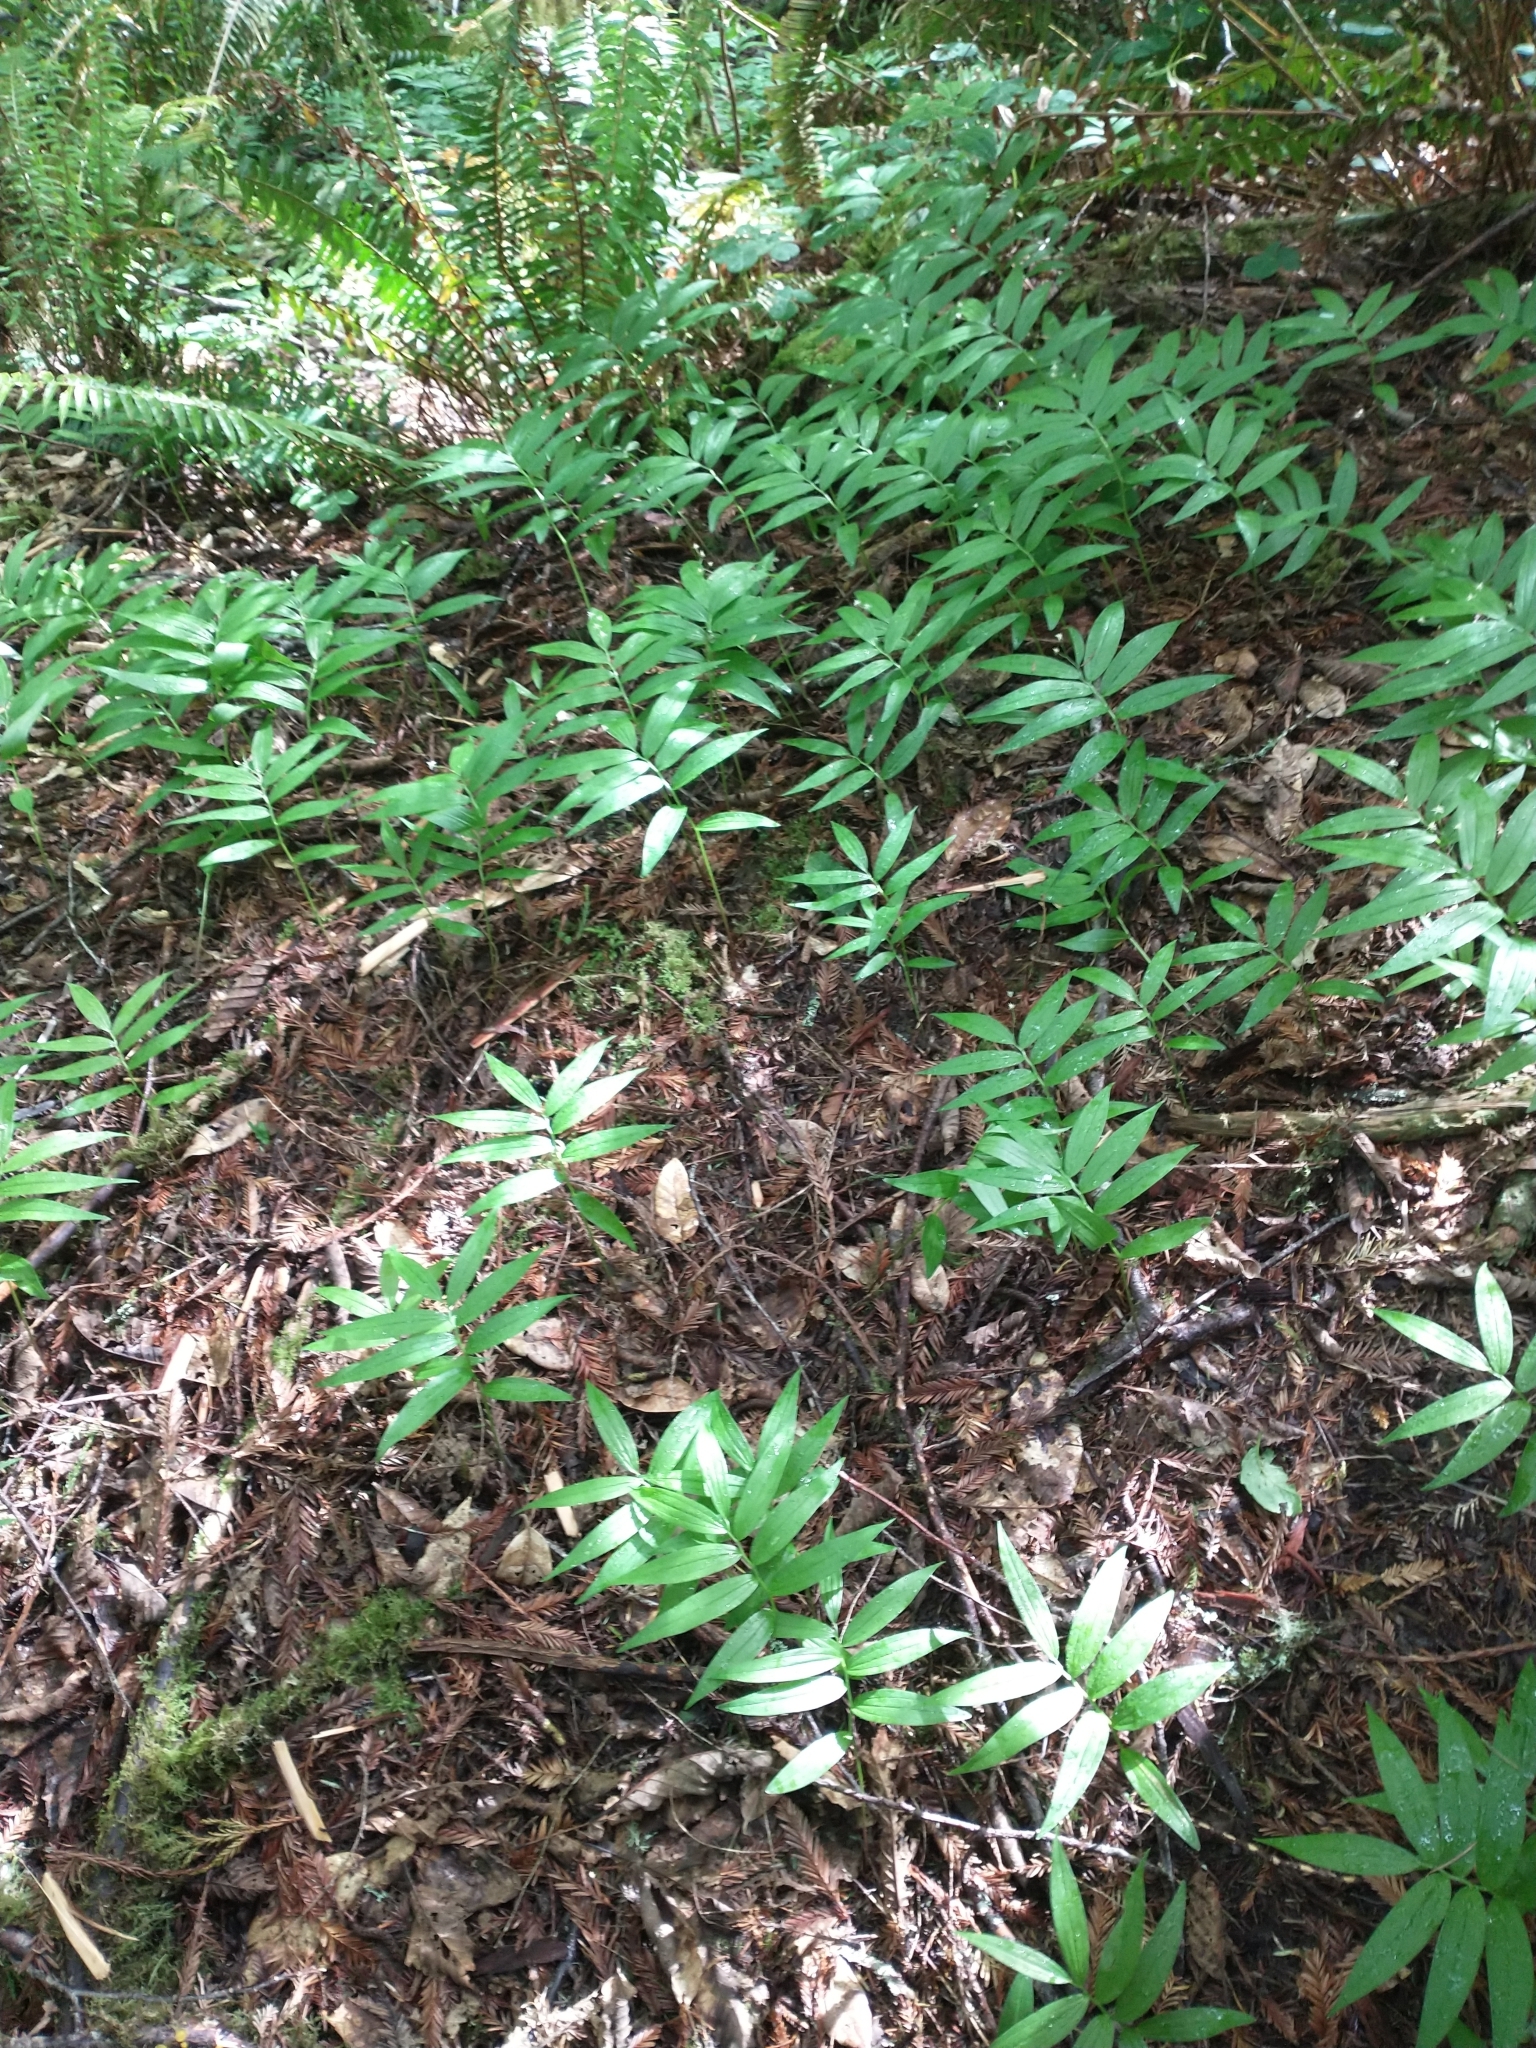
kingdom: Plantae
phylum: Tracheophyta
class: Liliopsida
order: Asparagales
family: Asparagaceae
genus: Maianthemum
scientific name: Maianthemum stellatum
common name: Little false solomon's seal
